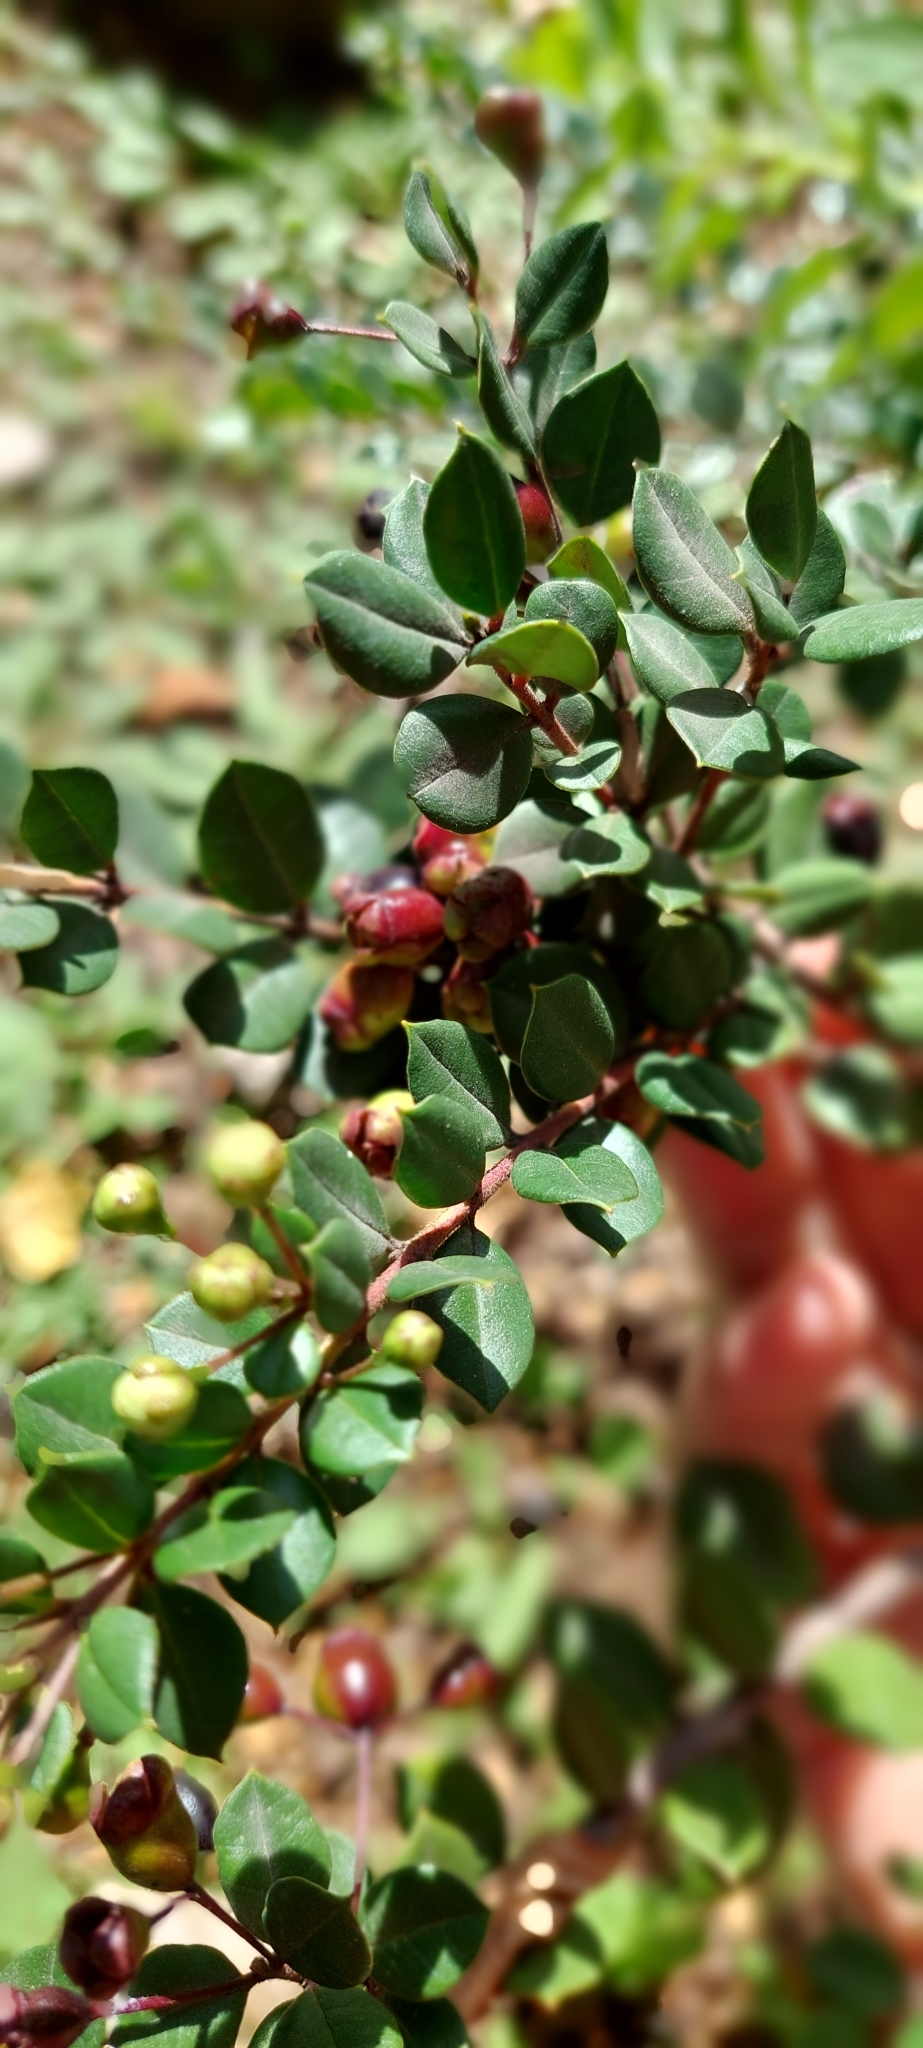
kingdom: Plantae
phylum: Tracheophyta
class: Magnoliopsida
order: Myrtales
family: Myrtaceae
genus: Luma
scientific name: Luma apiculata
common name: Chilean myrtle
